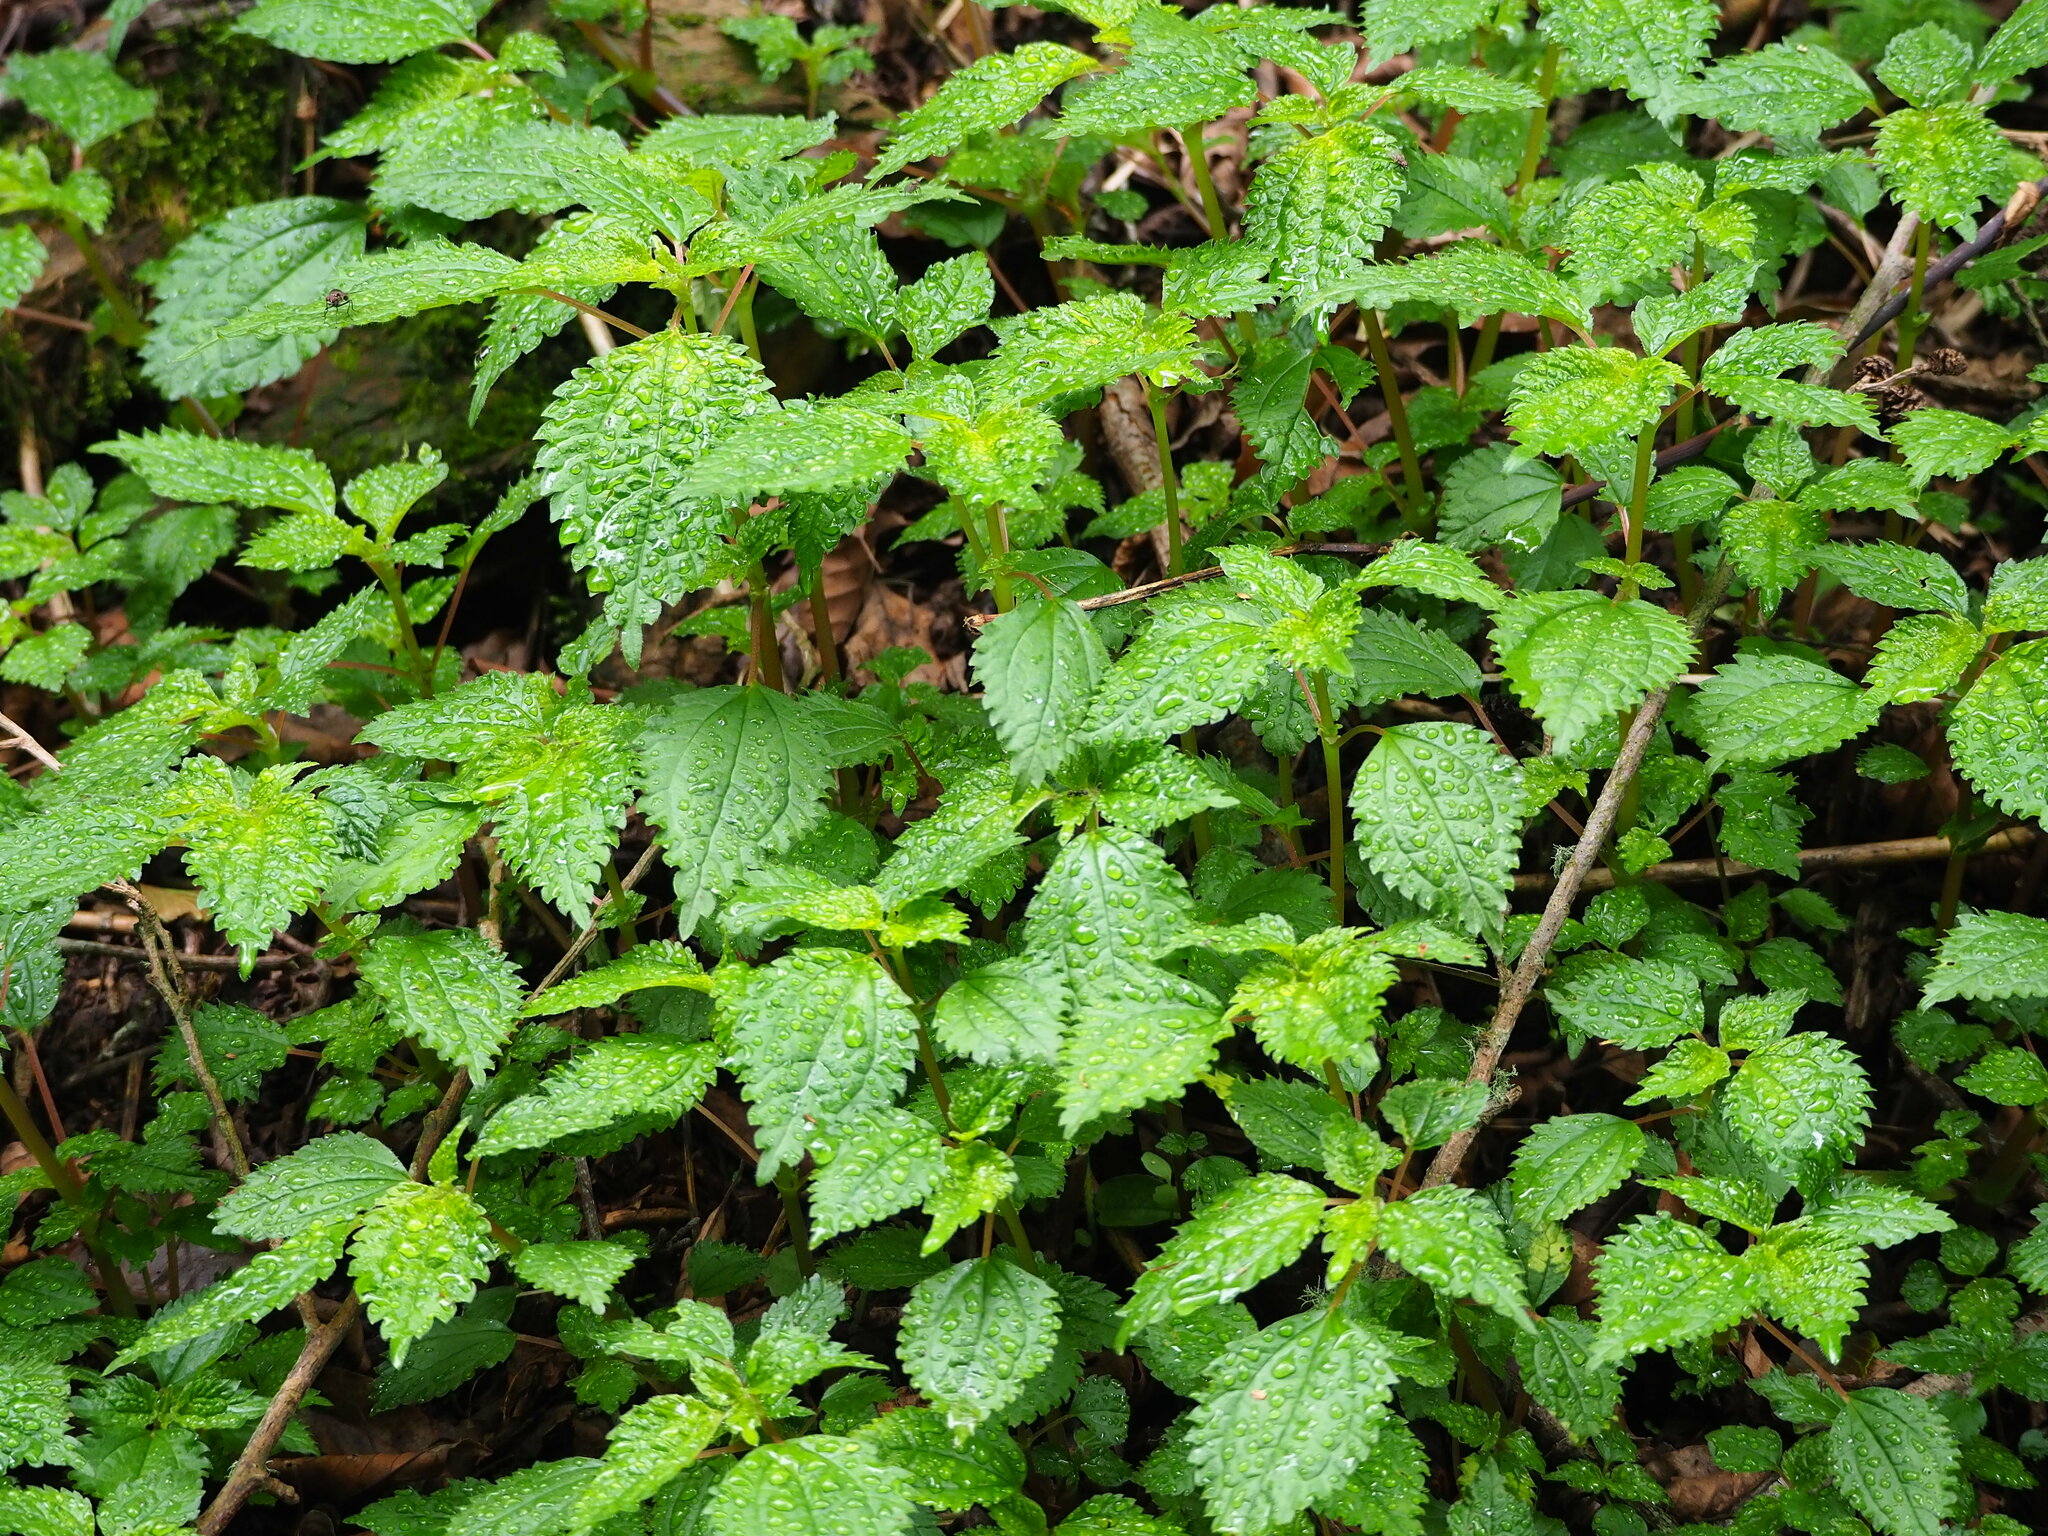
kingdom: Plantae
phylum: Tracheophyta
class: Magnoliopsida
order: Rosales
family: Urticaceae
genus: Lecanthus
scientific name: Lecanthus peduncularis
